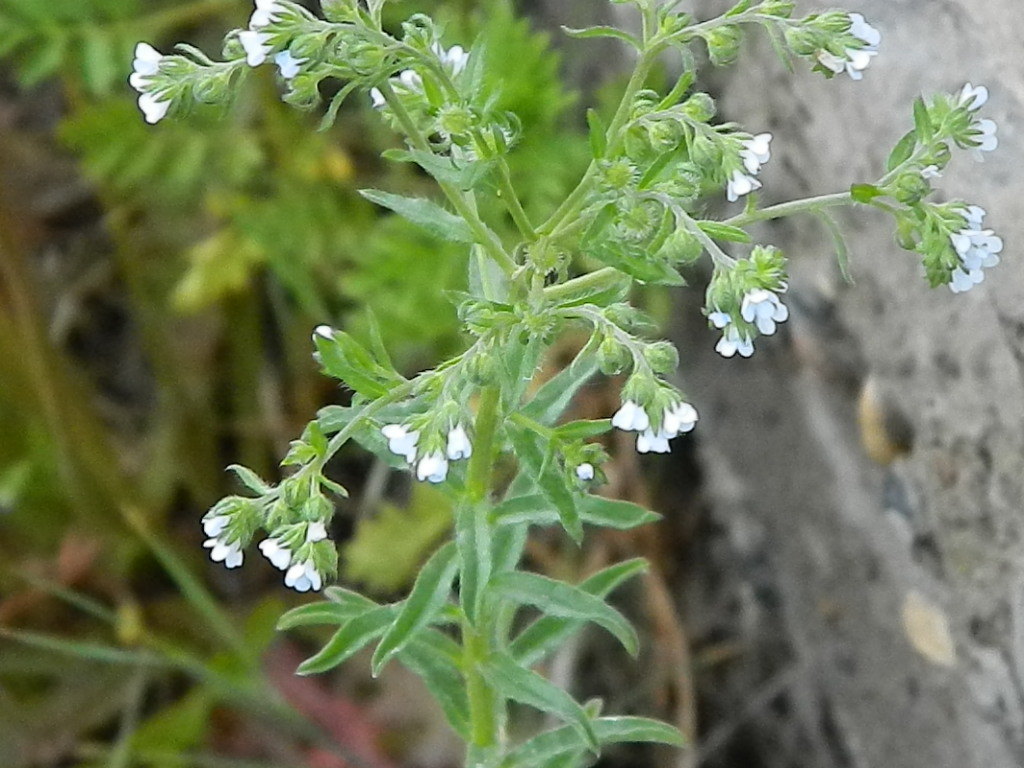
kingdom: Plantae
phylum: Tracheophyta
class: Magnoliopsida
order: Boraginales
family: Boraginaceae
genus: Lappula
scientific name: Lappula squarrosa
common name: European stickseed
